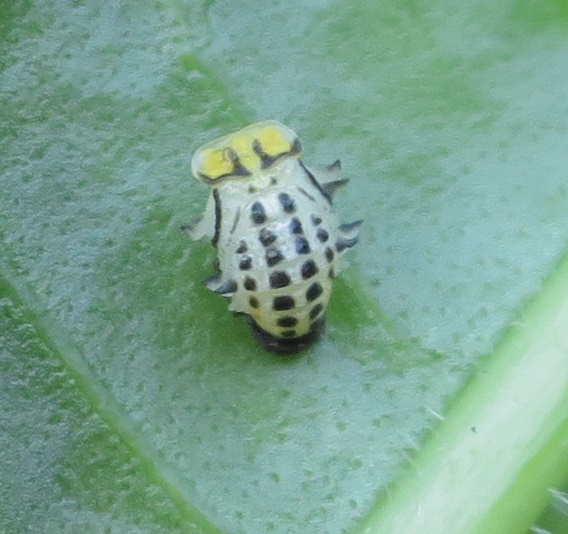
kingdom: Animalia
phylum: Arthropoda
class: Insecta
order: Coleoptera
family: Coccinellidae
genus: Illeis
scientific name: Illeis galbula
